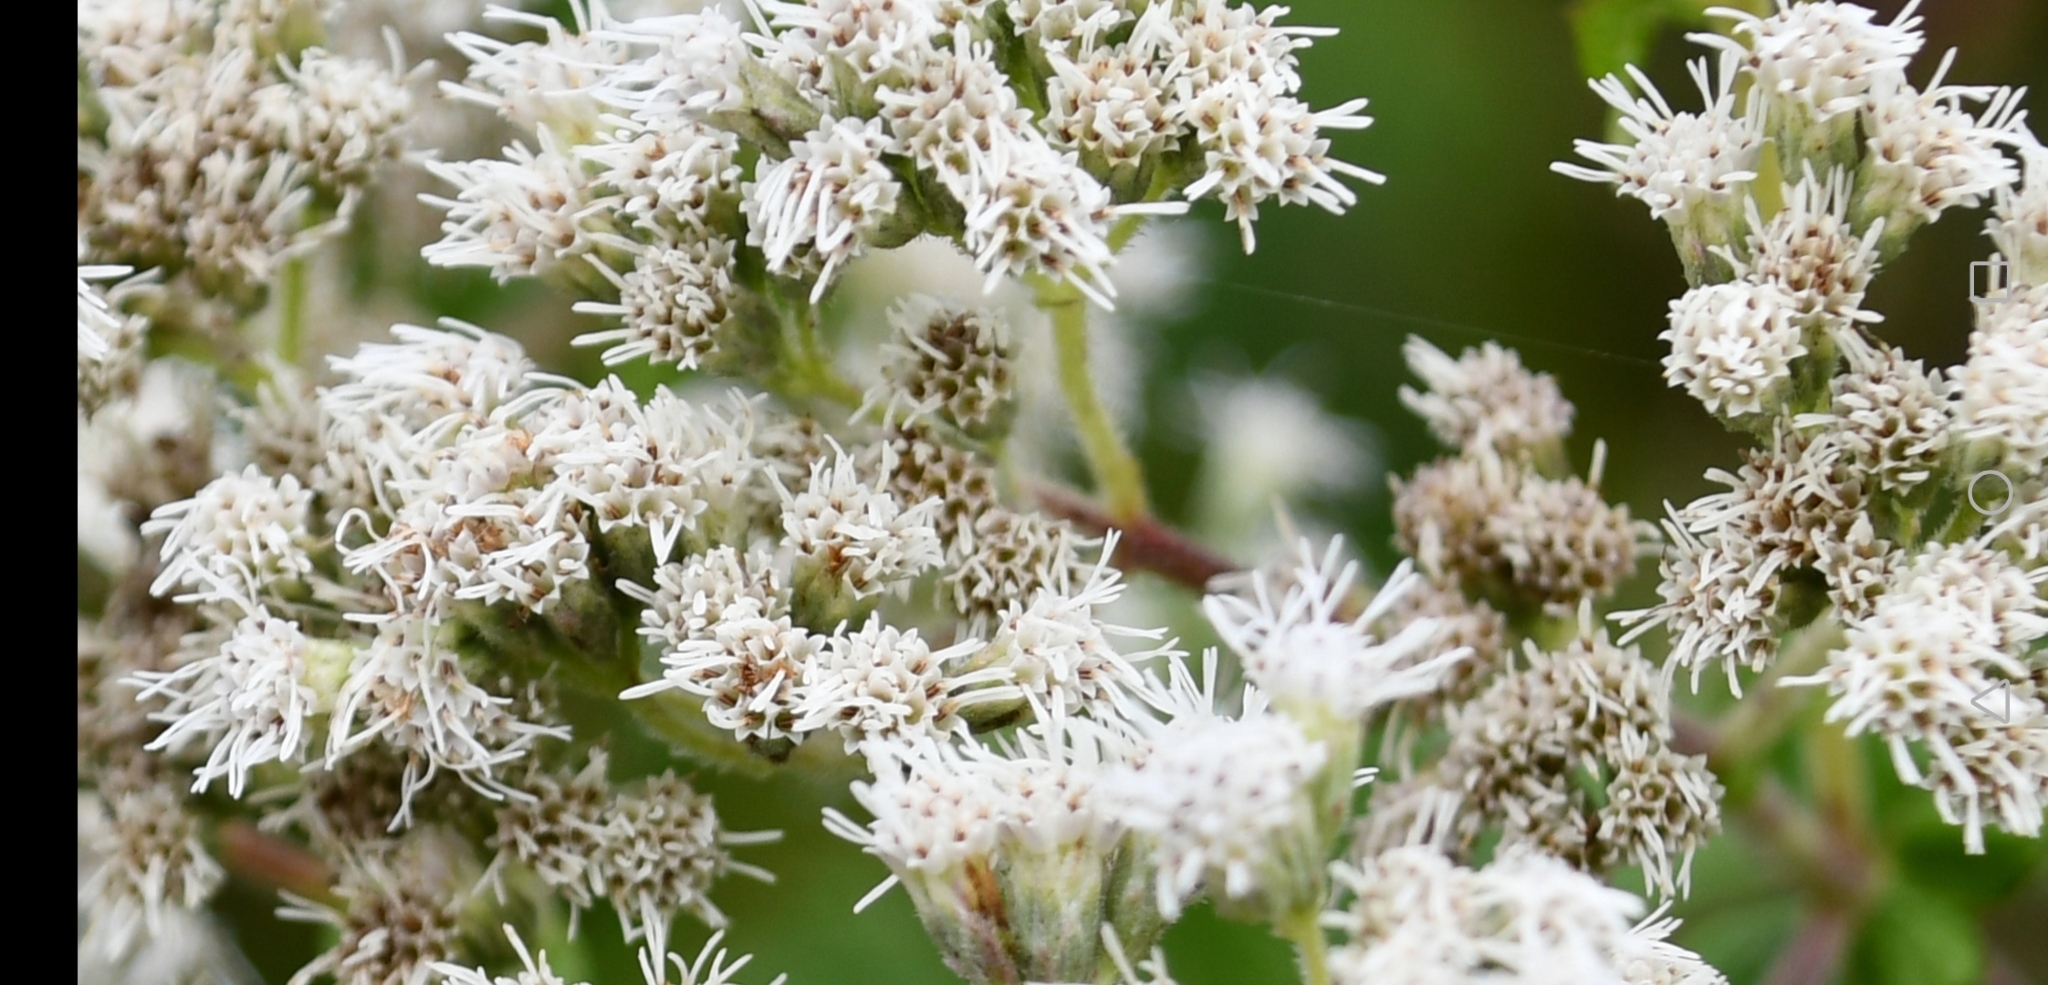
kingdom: Plantae
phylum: Tracheophyta
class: Magnoliopsida
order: Asterales
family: Asteraceae
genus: Eupatorium
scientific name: Eupatorium perfoliatum
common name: Boneset
